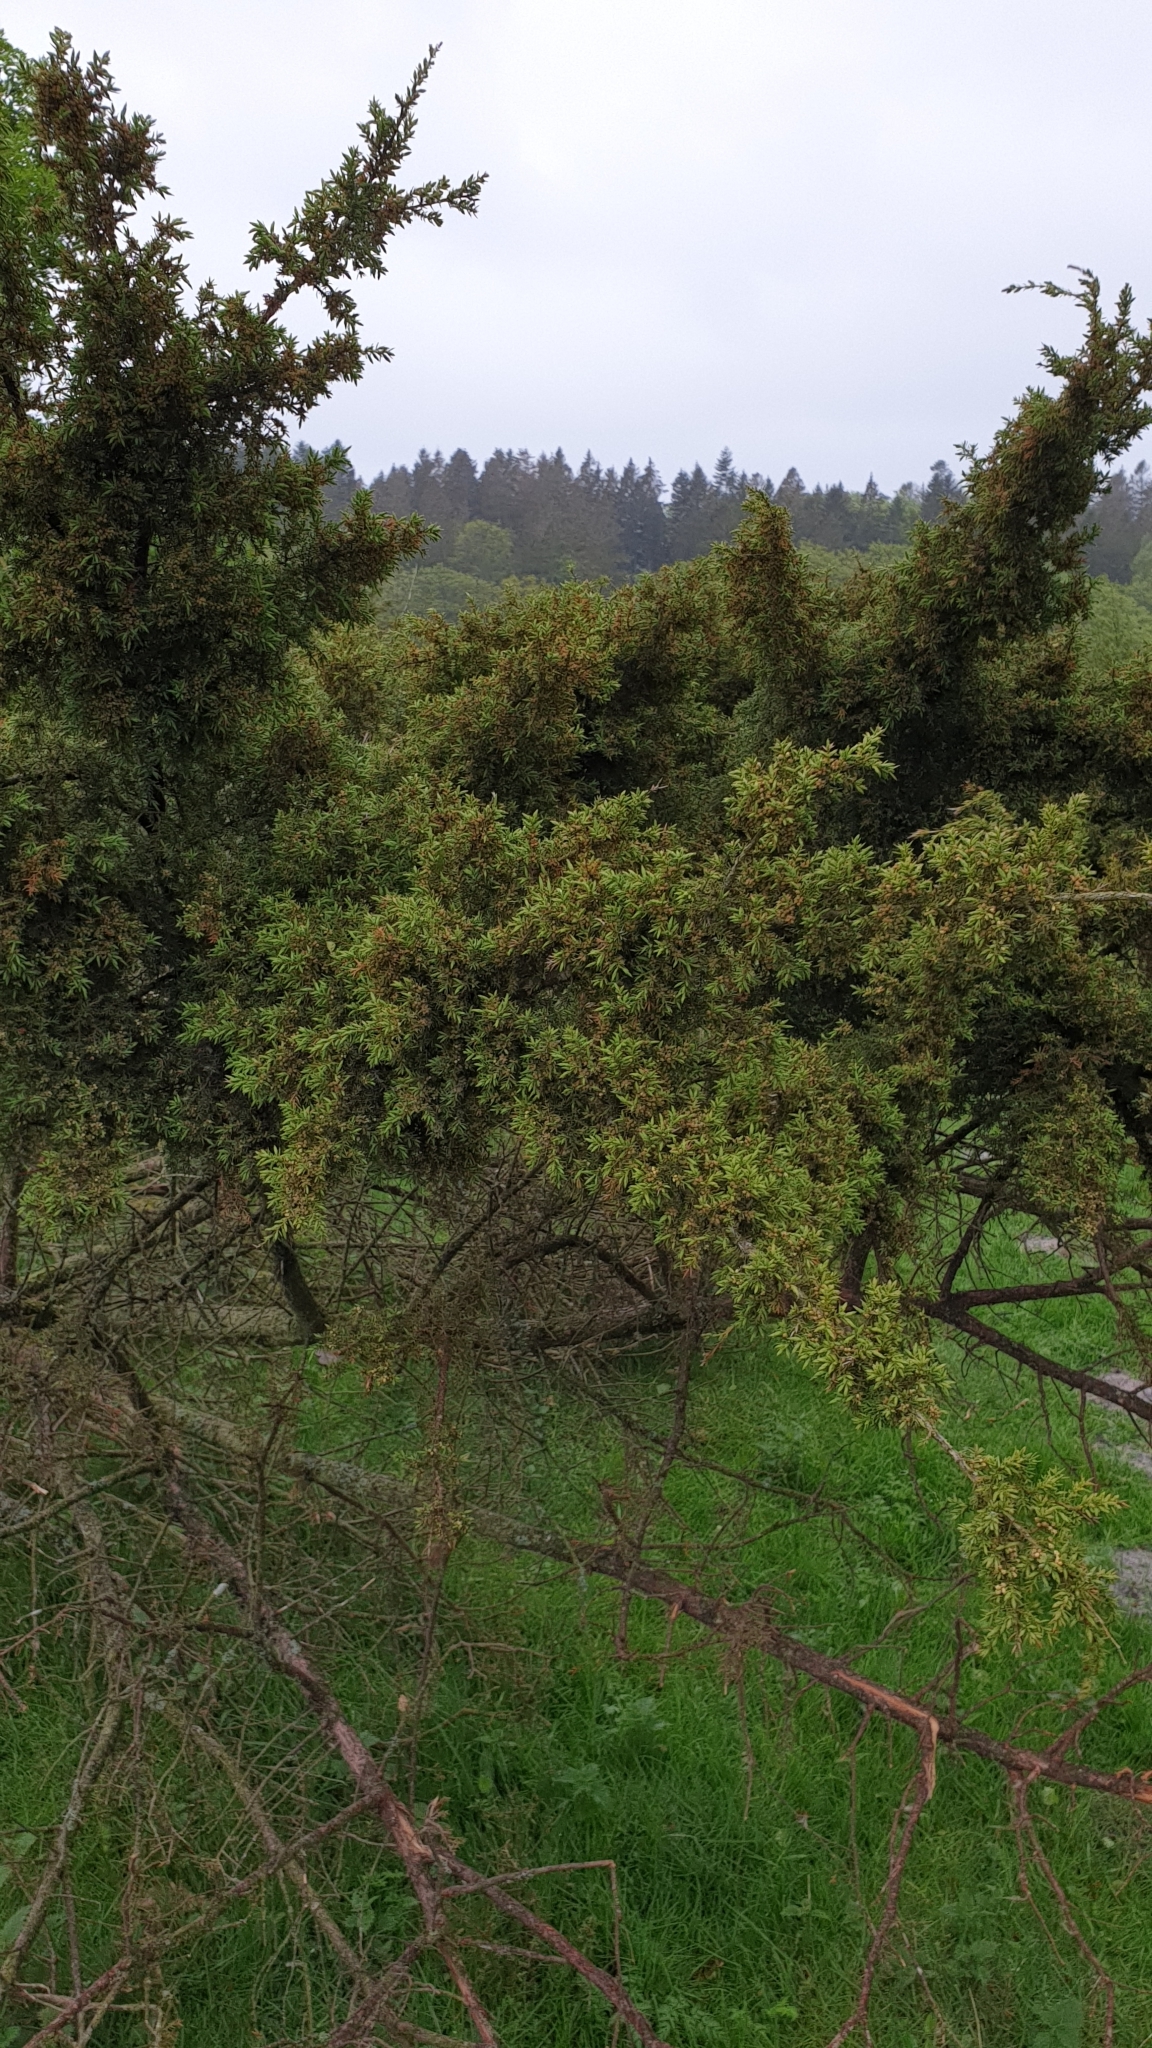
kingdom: Plantae
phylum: Tracheophyta
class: Pinopsida
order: Pinales
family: Cupressaceae
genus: Juniperus
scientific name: Juniperus communis
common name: Common juniper
